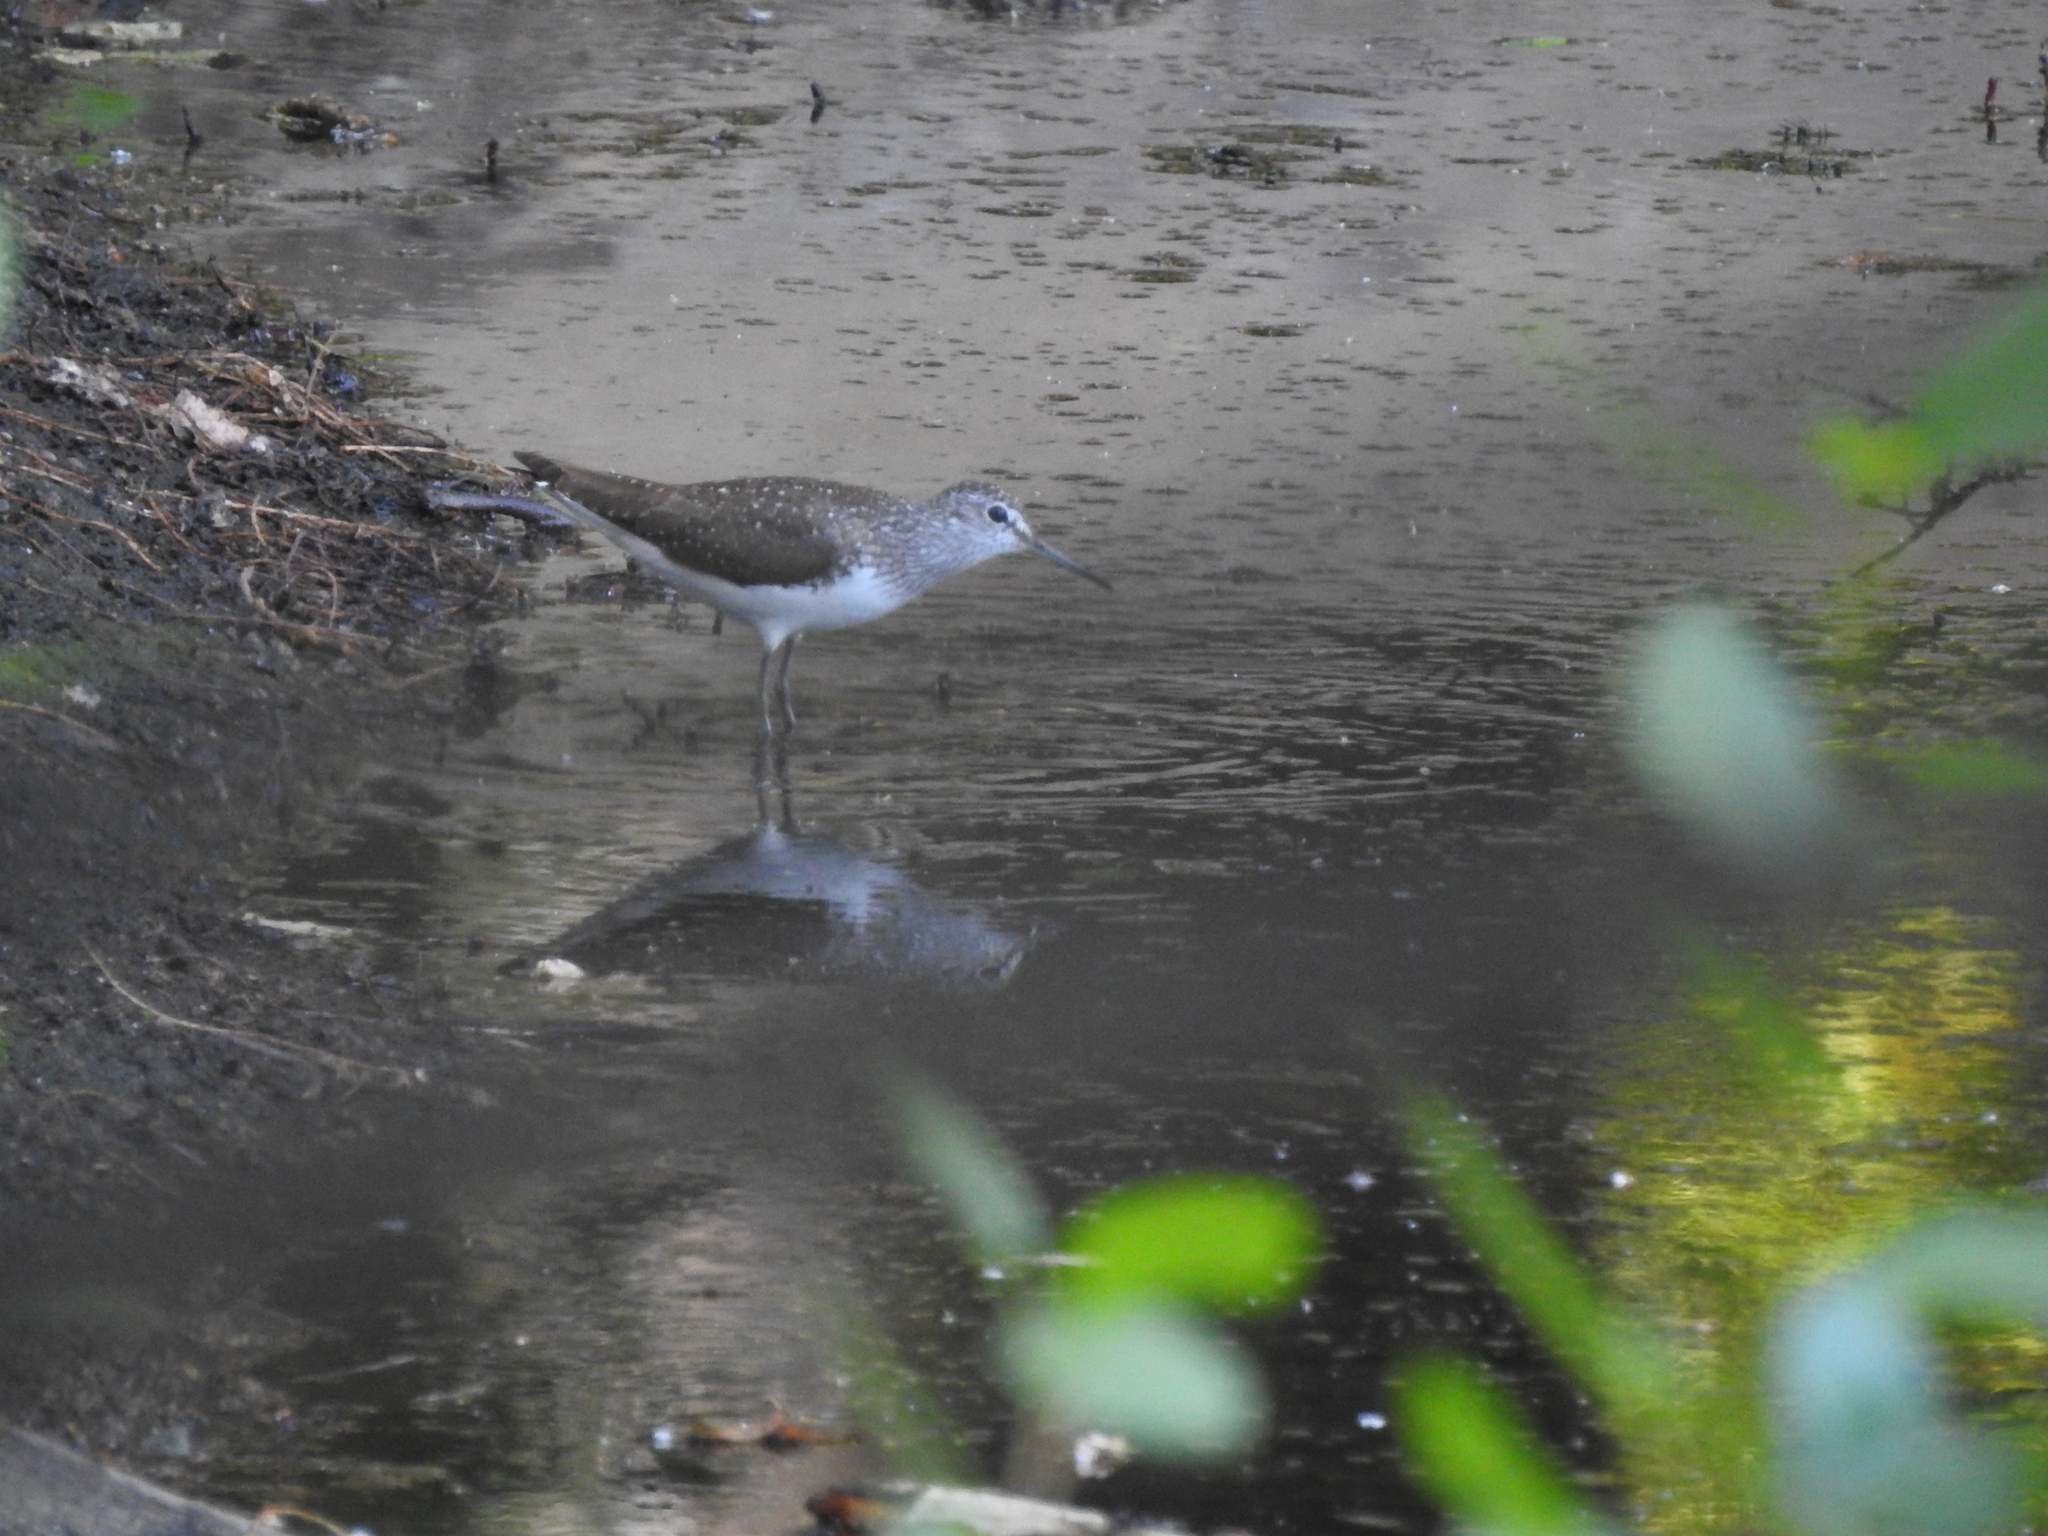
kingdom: Animalia
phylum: Chordata
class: Aves
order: Charadriiformes
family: Scolopacidae
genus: Tringa
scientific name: Tringa ochropus
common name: Green sandpiper
